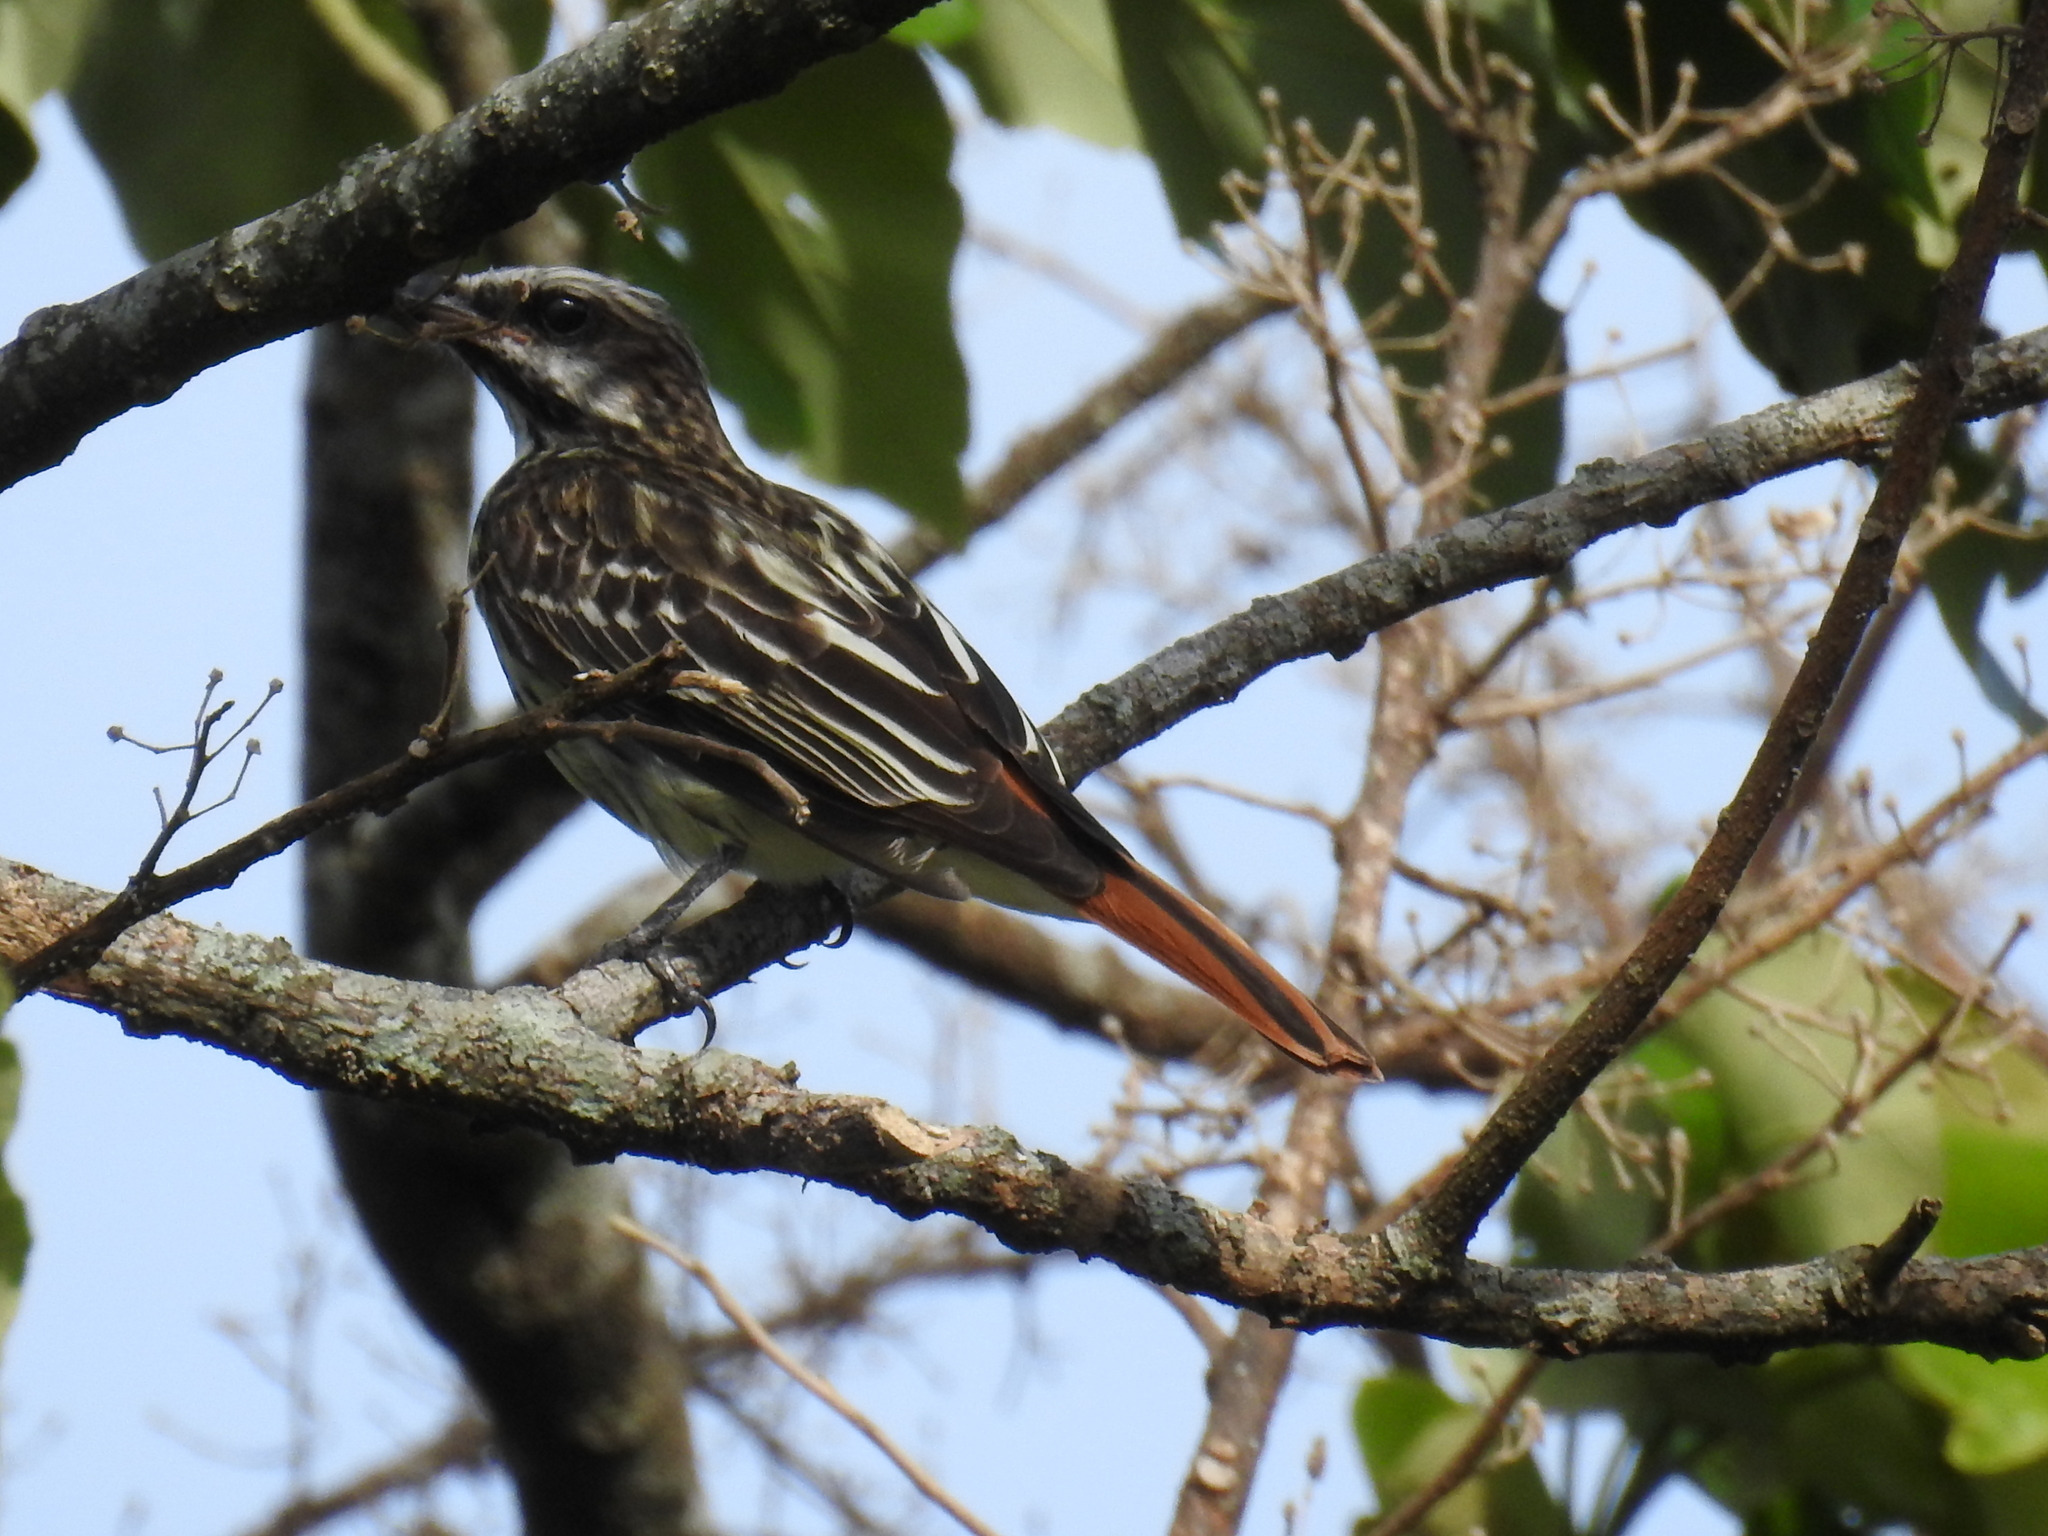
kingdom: Animalia
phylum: Chordata
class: Aves
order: Passeriformes
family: Tyrannidae
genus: Myiodynastes
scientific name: Myiodynastes luteiventris
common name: Sulphur-bellied flycatcher
